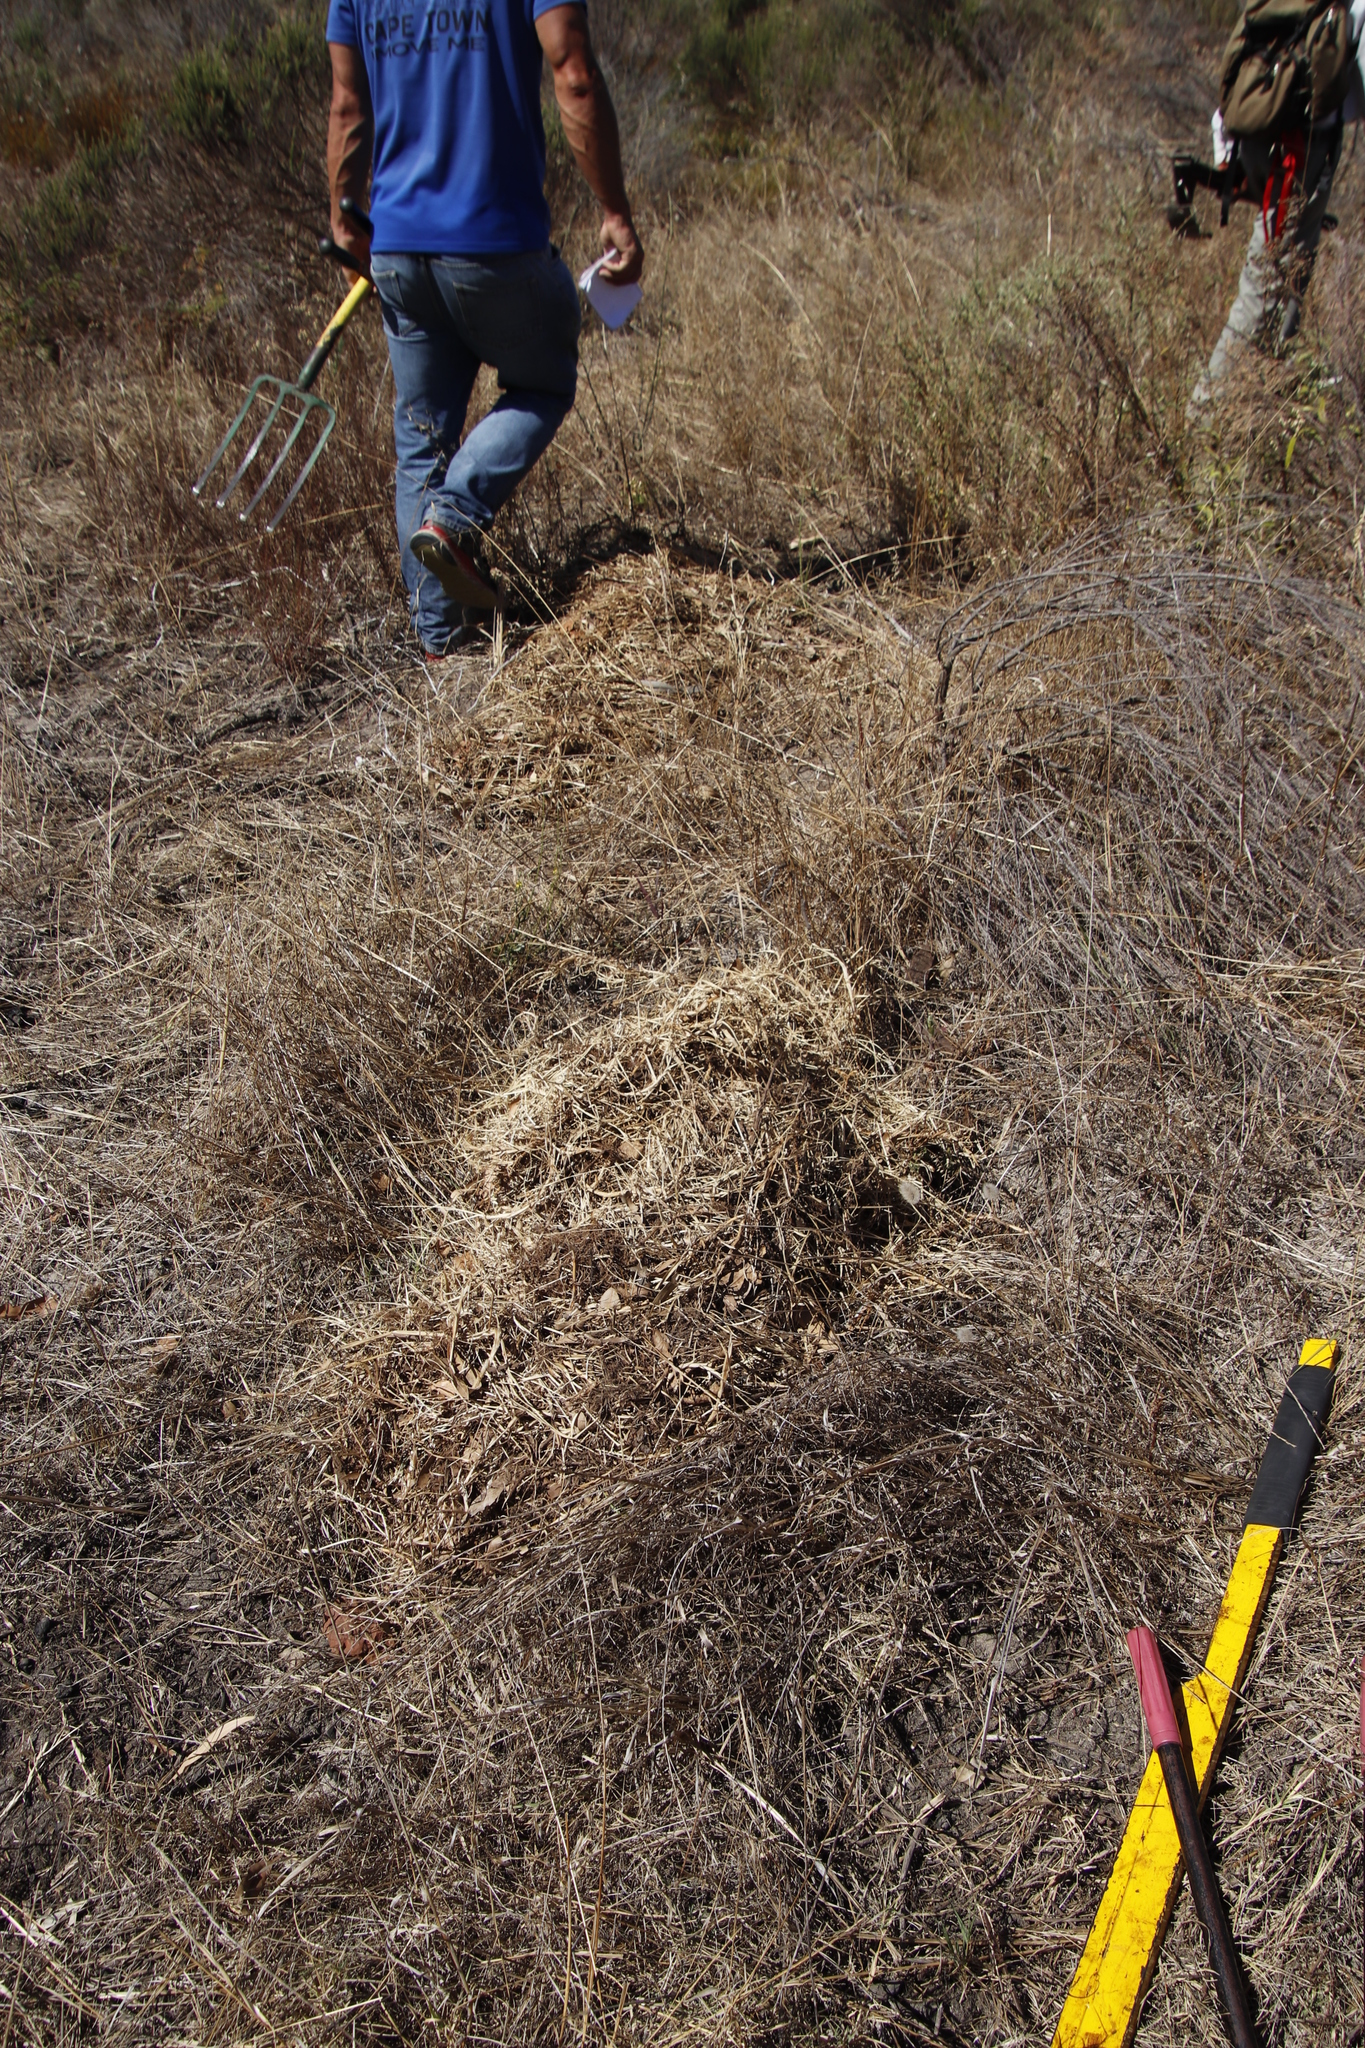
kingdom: Plantae
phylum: Tracheophyta
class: Liliopsida
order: Poales
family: Poaceae
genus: Cenchrus
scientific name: Cenchrus clandestinus
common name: Kikuyugrass
